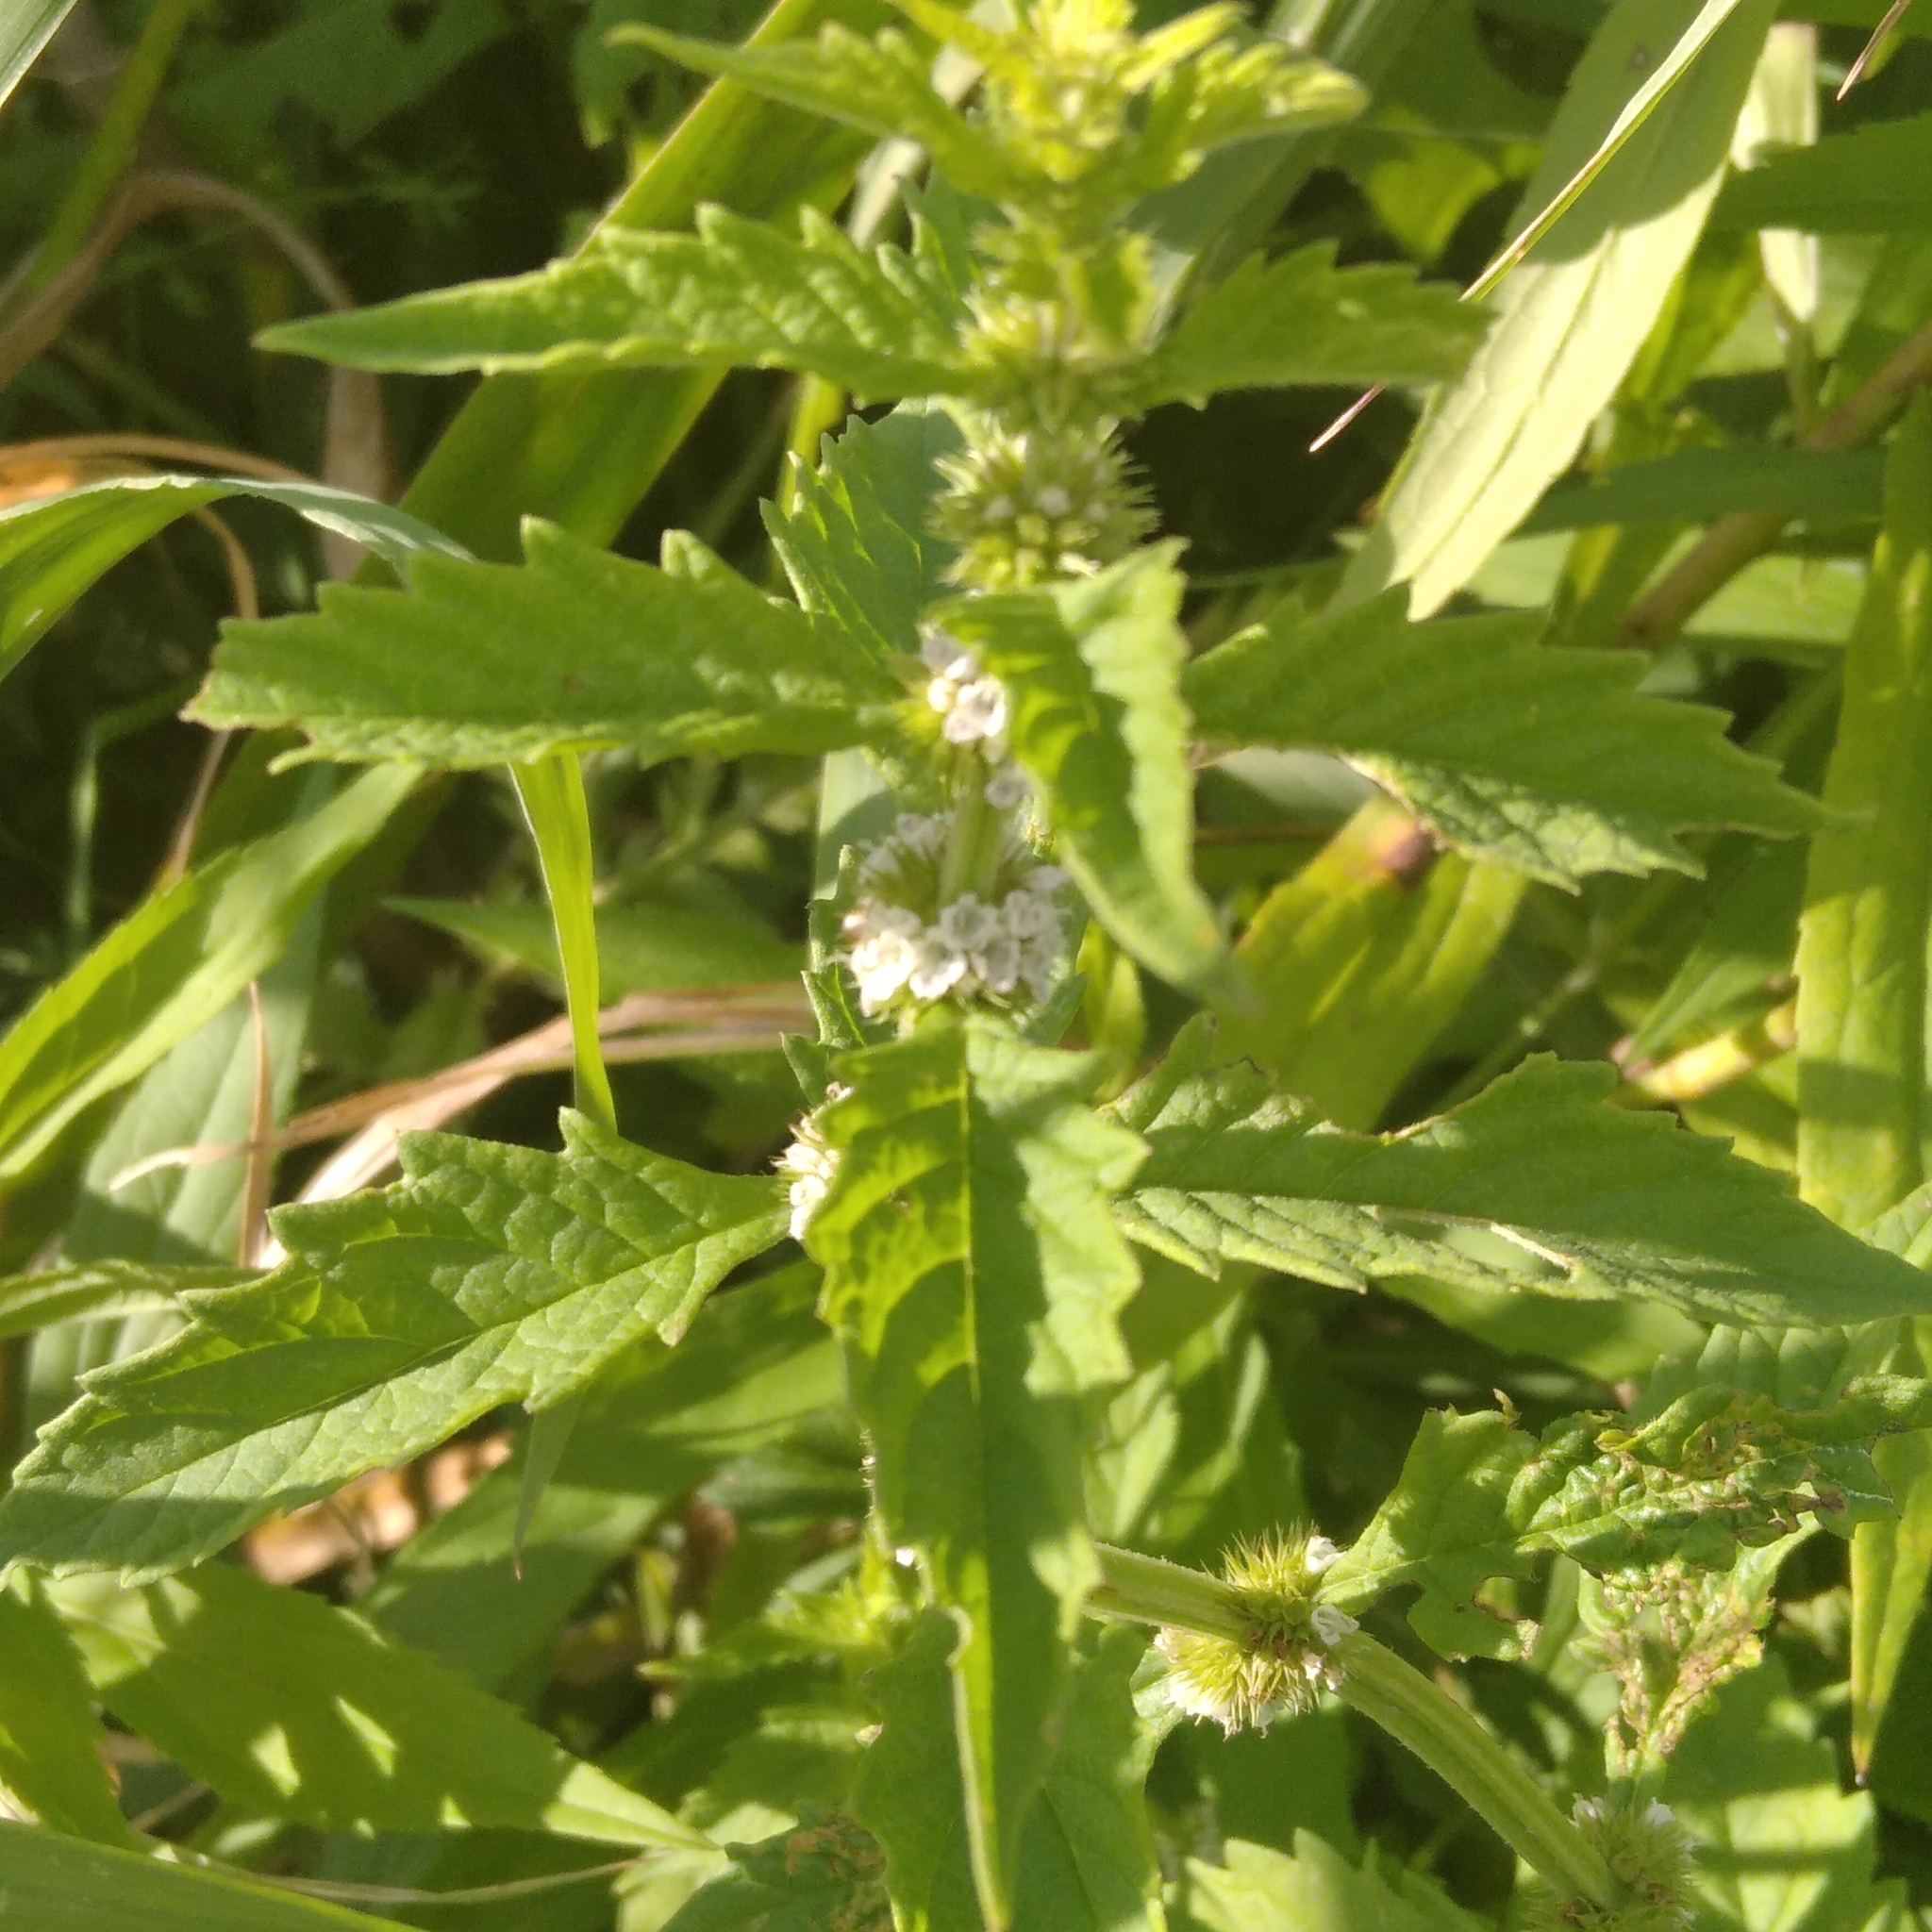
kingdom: Plantae
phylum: Tracheophyta
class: Magnoliopsida
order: Lamiales
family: Lamiaceae
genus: Lycopus
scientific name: Lycopus europaeus
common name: European bugleweed
